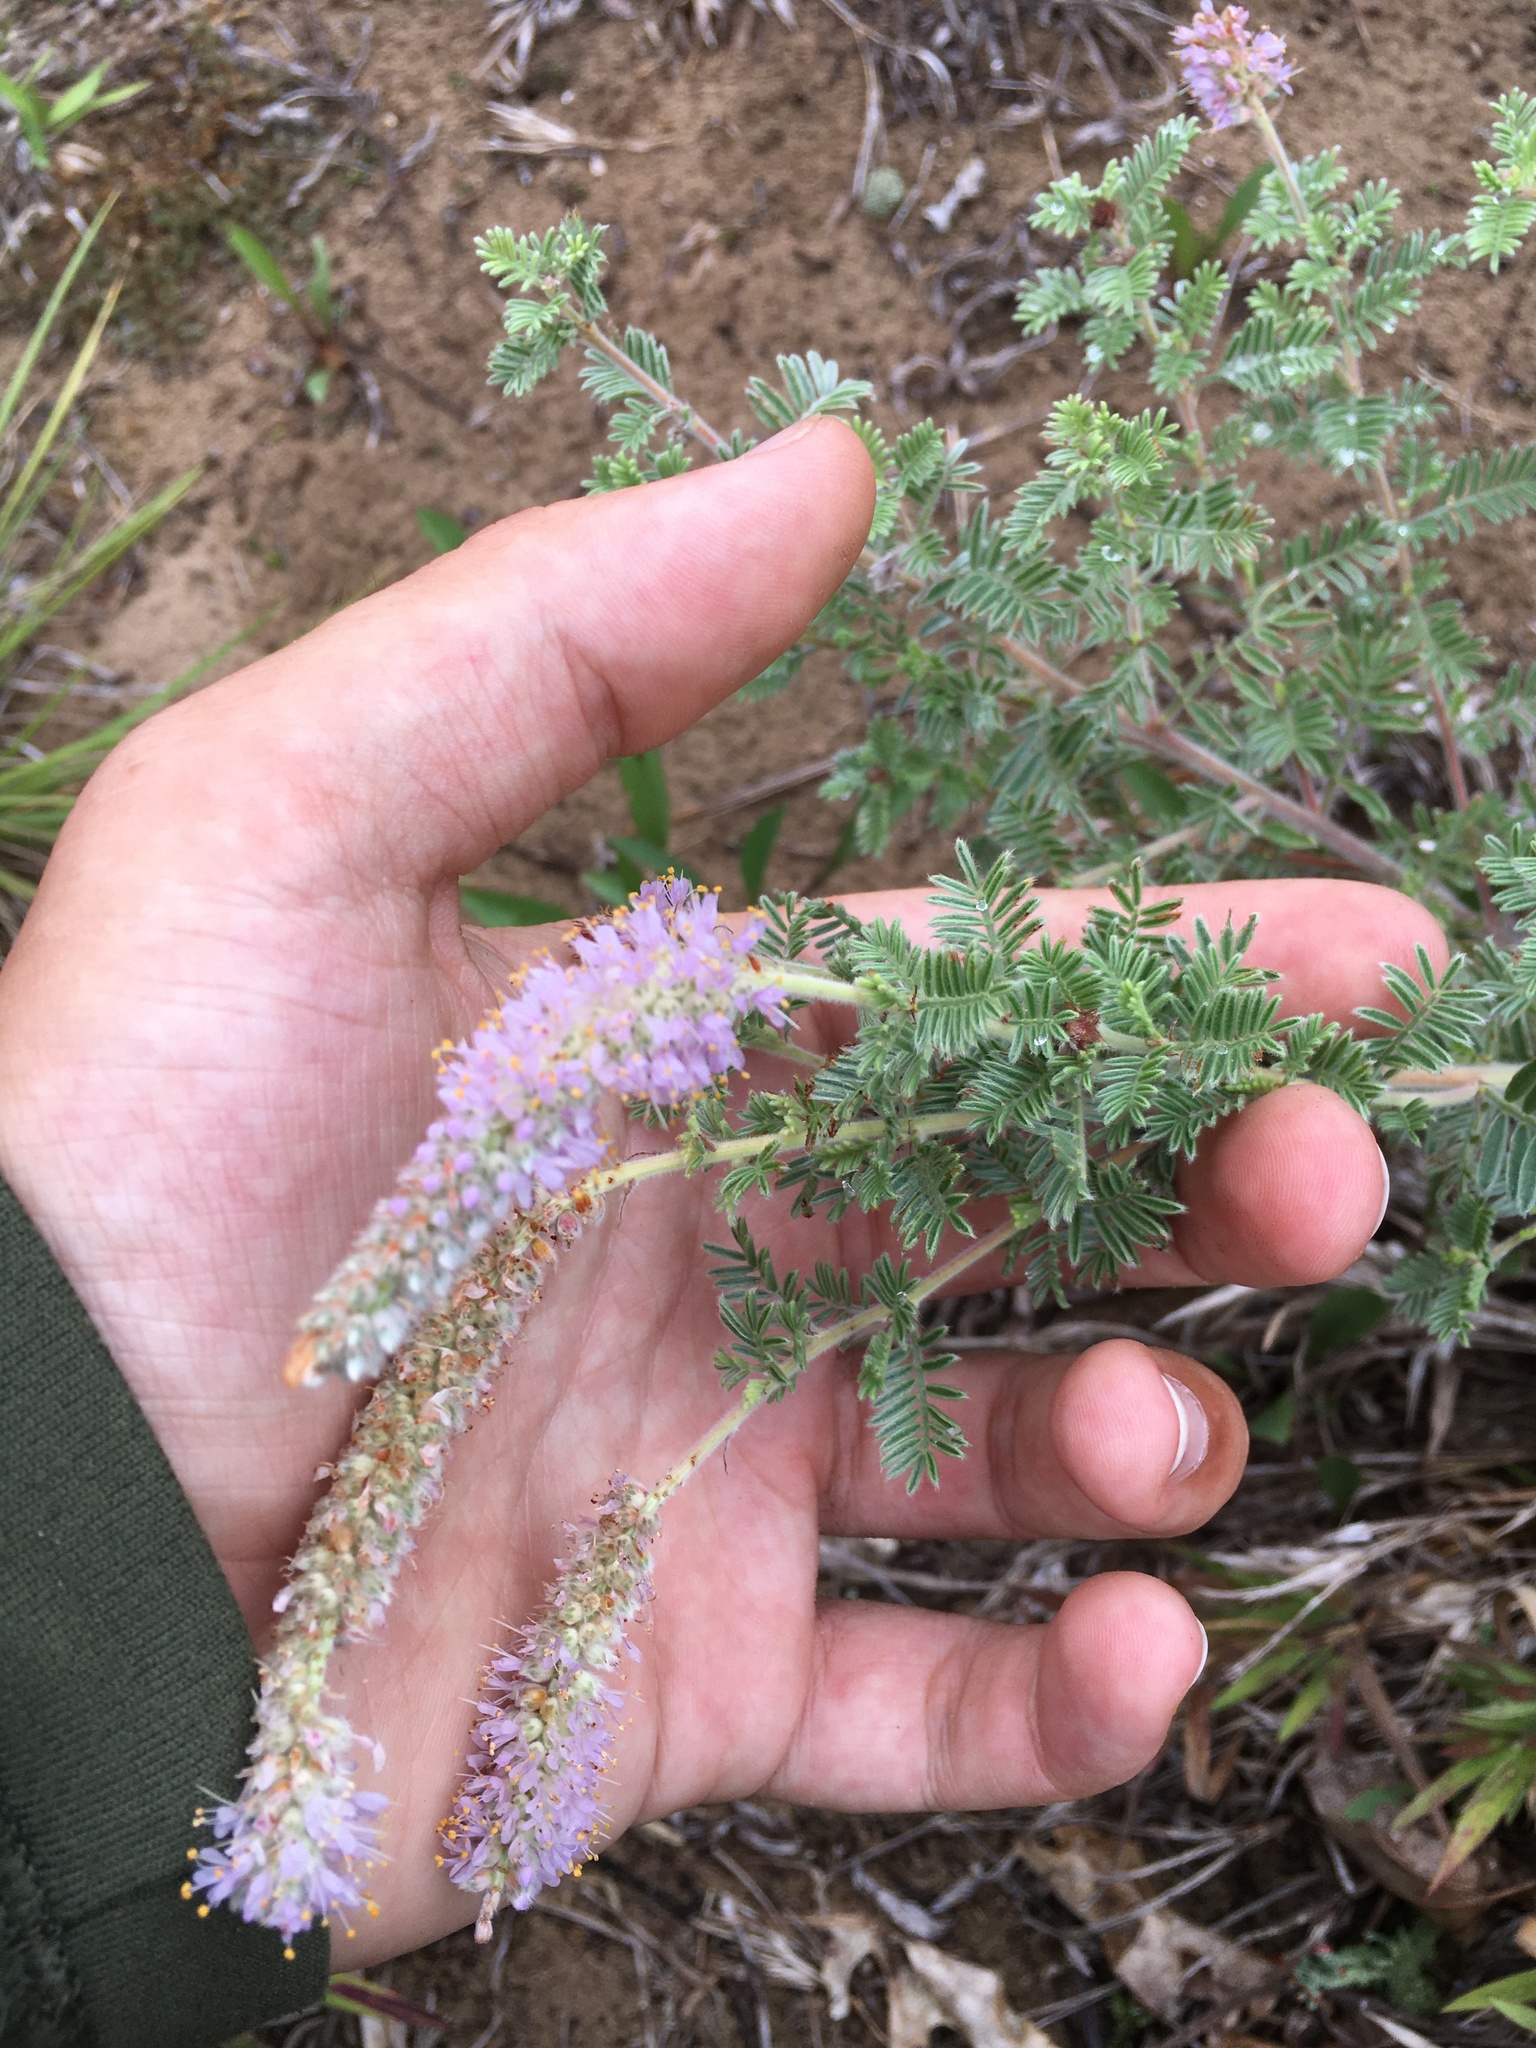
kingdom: Plantae
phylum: Tracheophyta
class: Magnoliopsida
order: Fabales
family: Fabaceae
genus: Dalea
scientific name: Dalea villosa
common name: Silky prairie-clover
